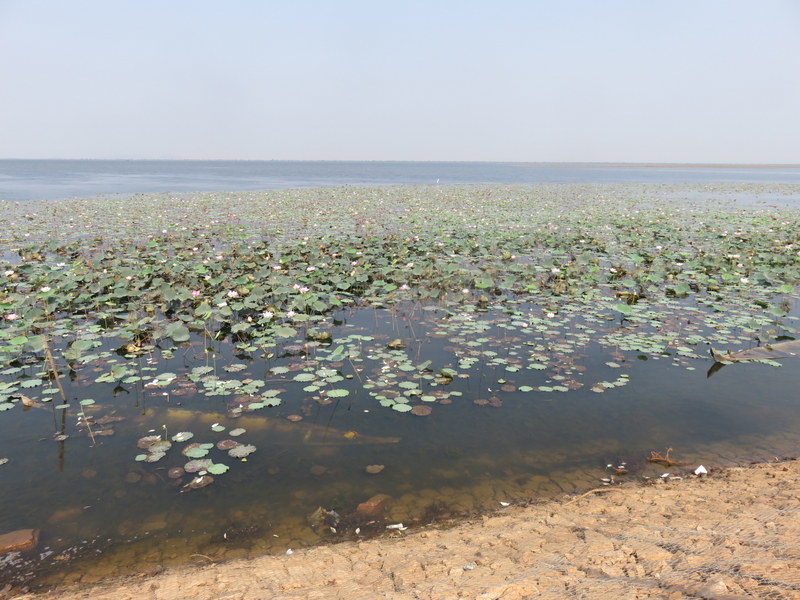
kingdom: Plantae
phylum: Tracheophyta
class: Magnoliopsida
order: Proteales
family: Nelumbonaceae
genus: Nelumbo
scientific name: Nelumbo nucifera
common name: Sacred lotus
